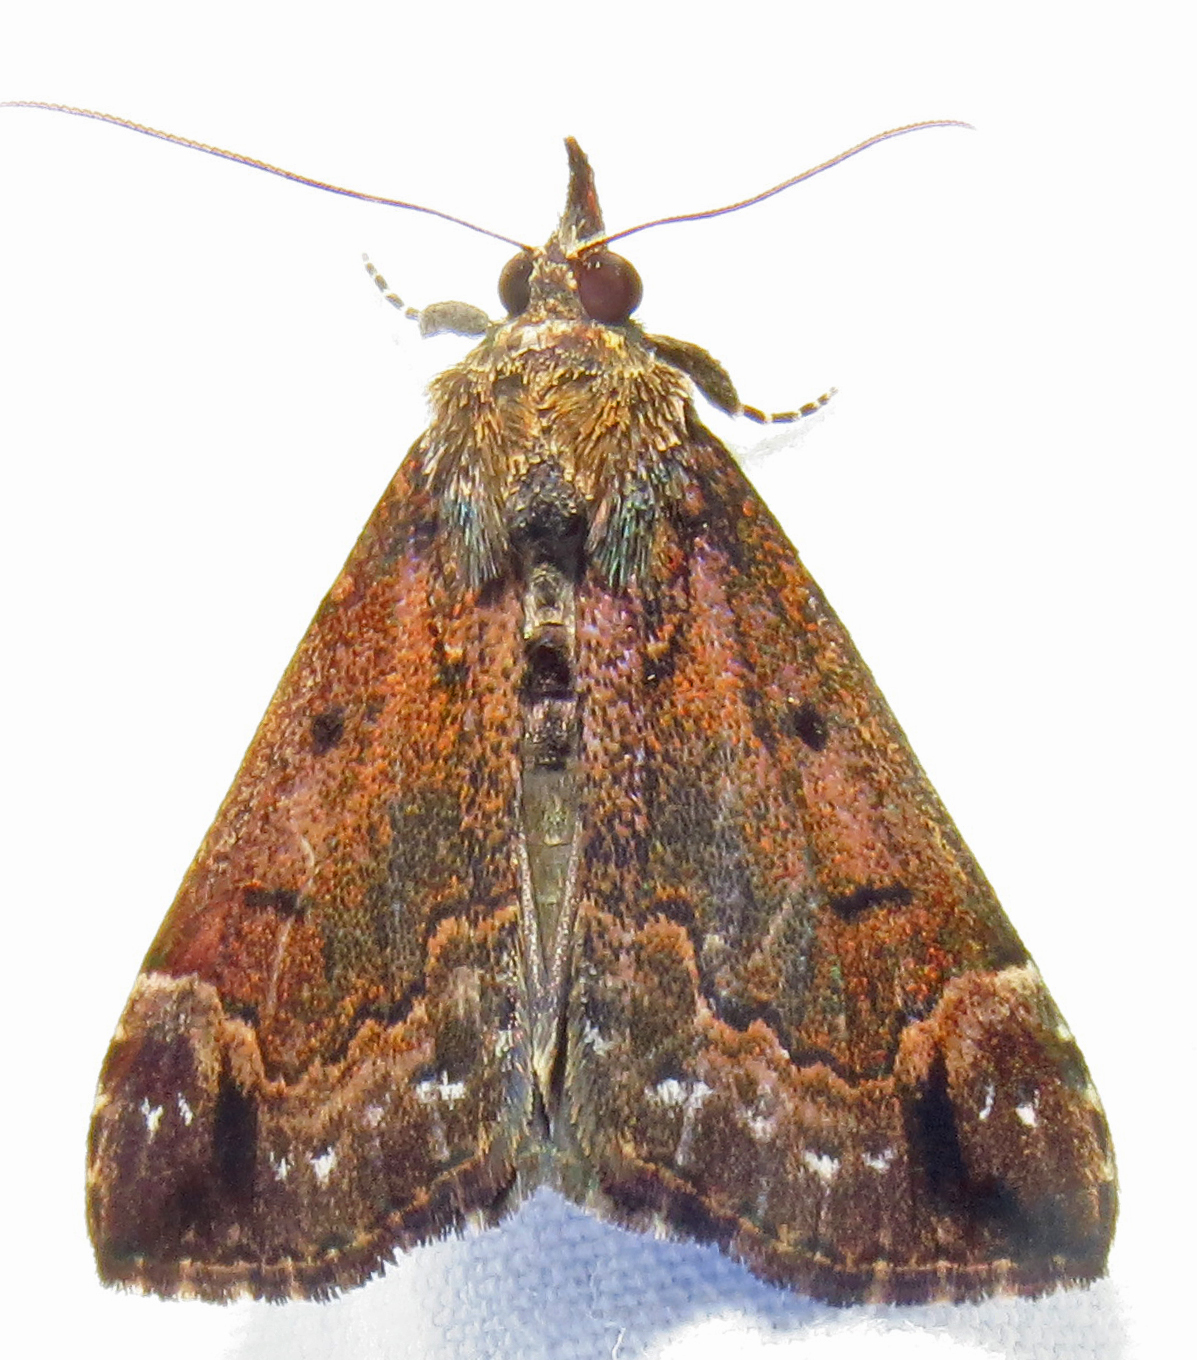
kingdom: Animalia
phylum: Arthropoda
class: Insecta
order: Lepidoptera
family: Erebidae
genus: Hypena
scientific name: Hypena palparia
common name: Mottled bomolocha moth
